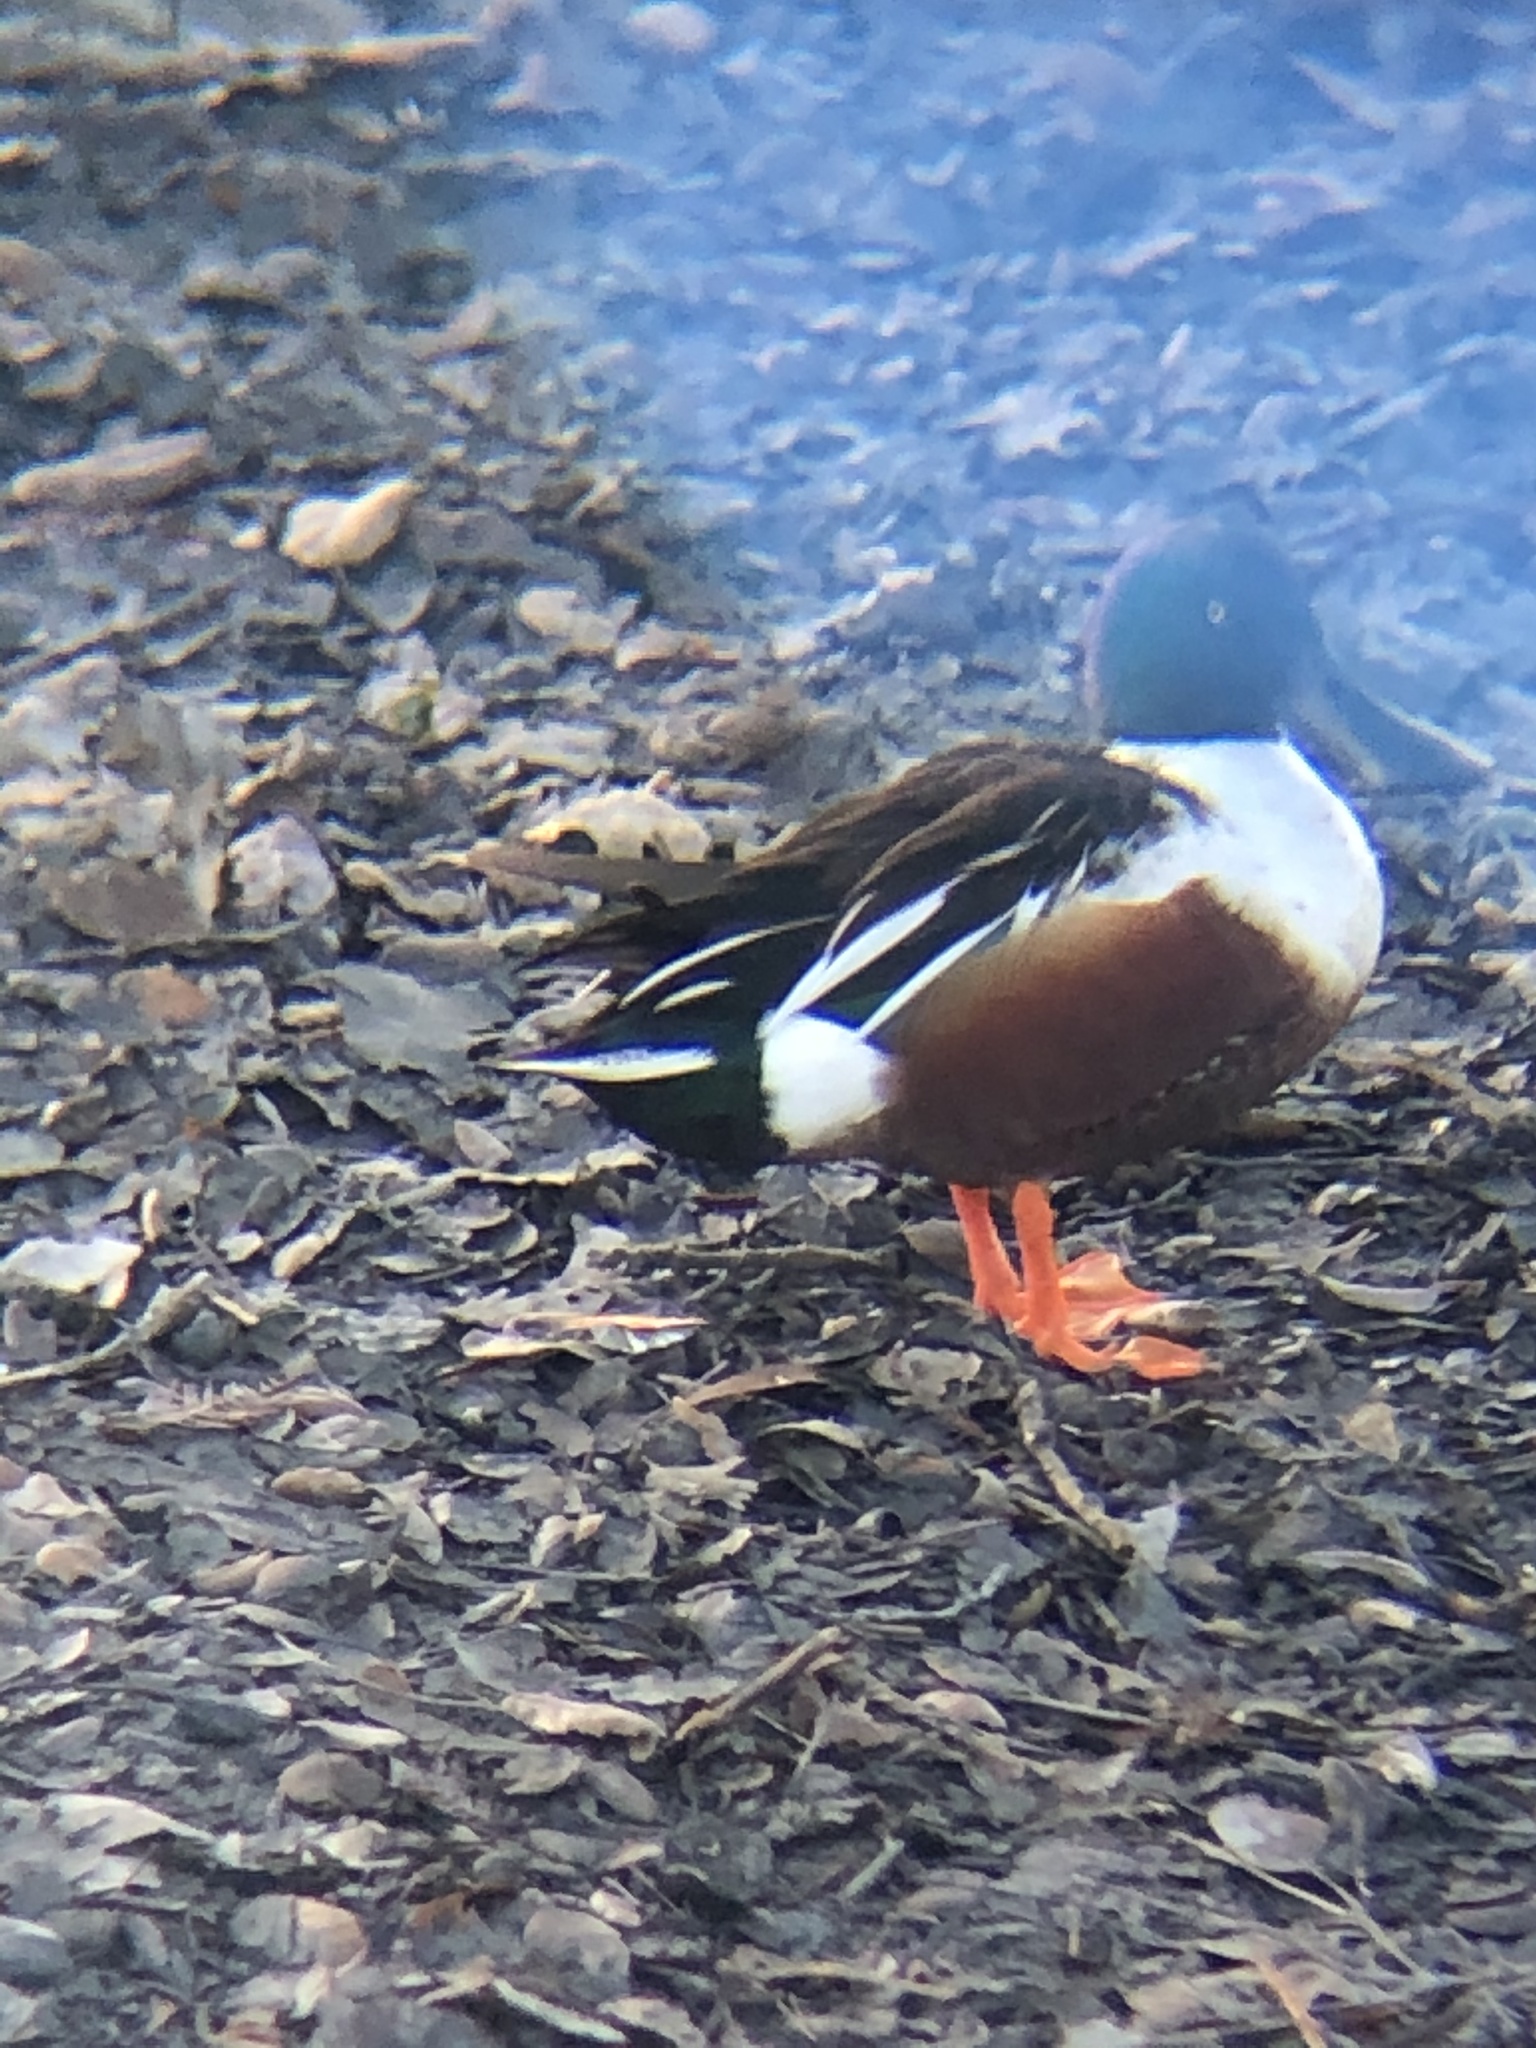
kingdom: Animalia
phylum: Chordata
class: Aves
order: Anseriformes
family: Anatidae
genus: Spatula
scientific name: Spatula clypeata
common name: Northern shoveler
